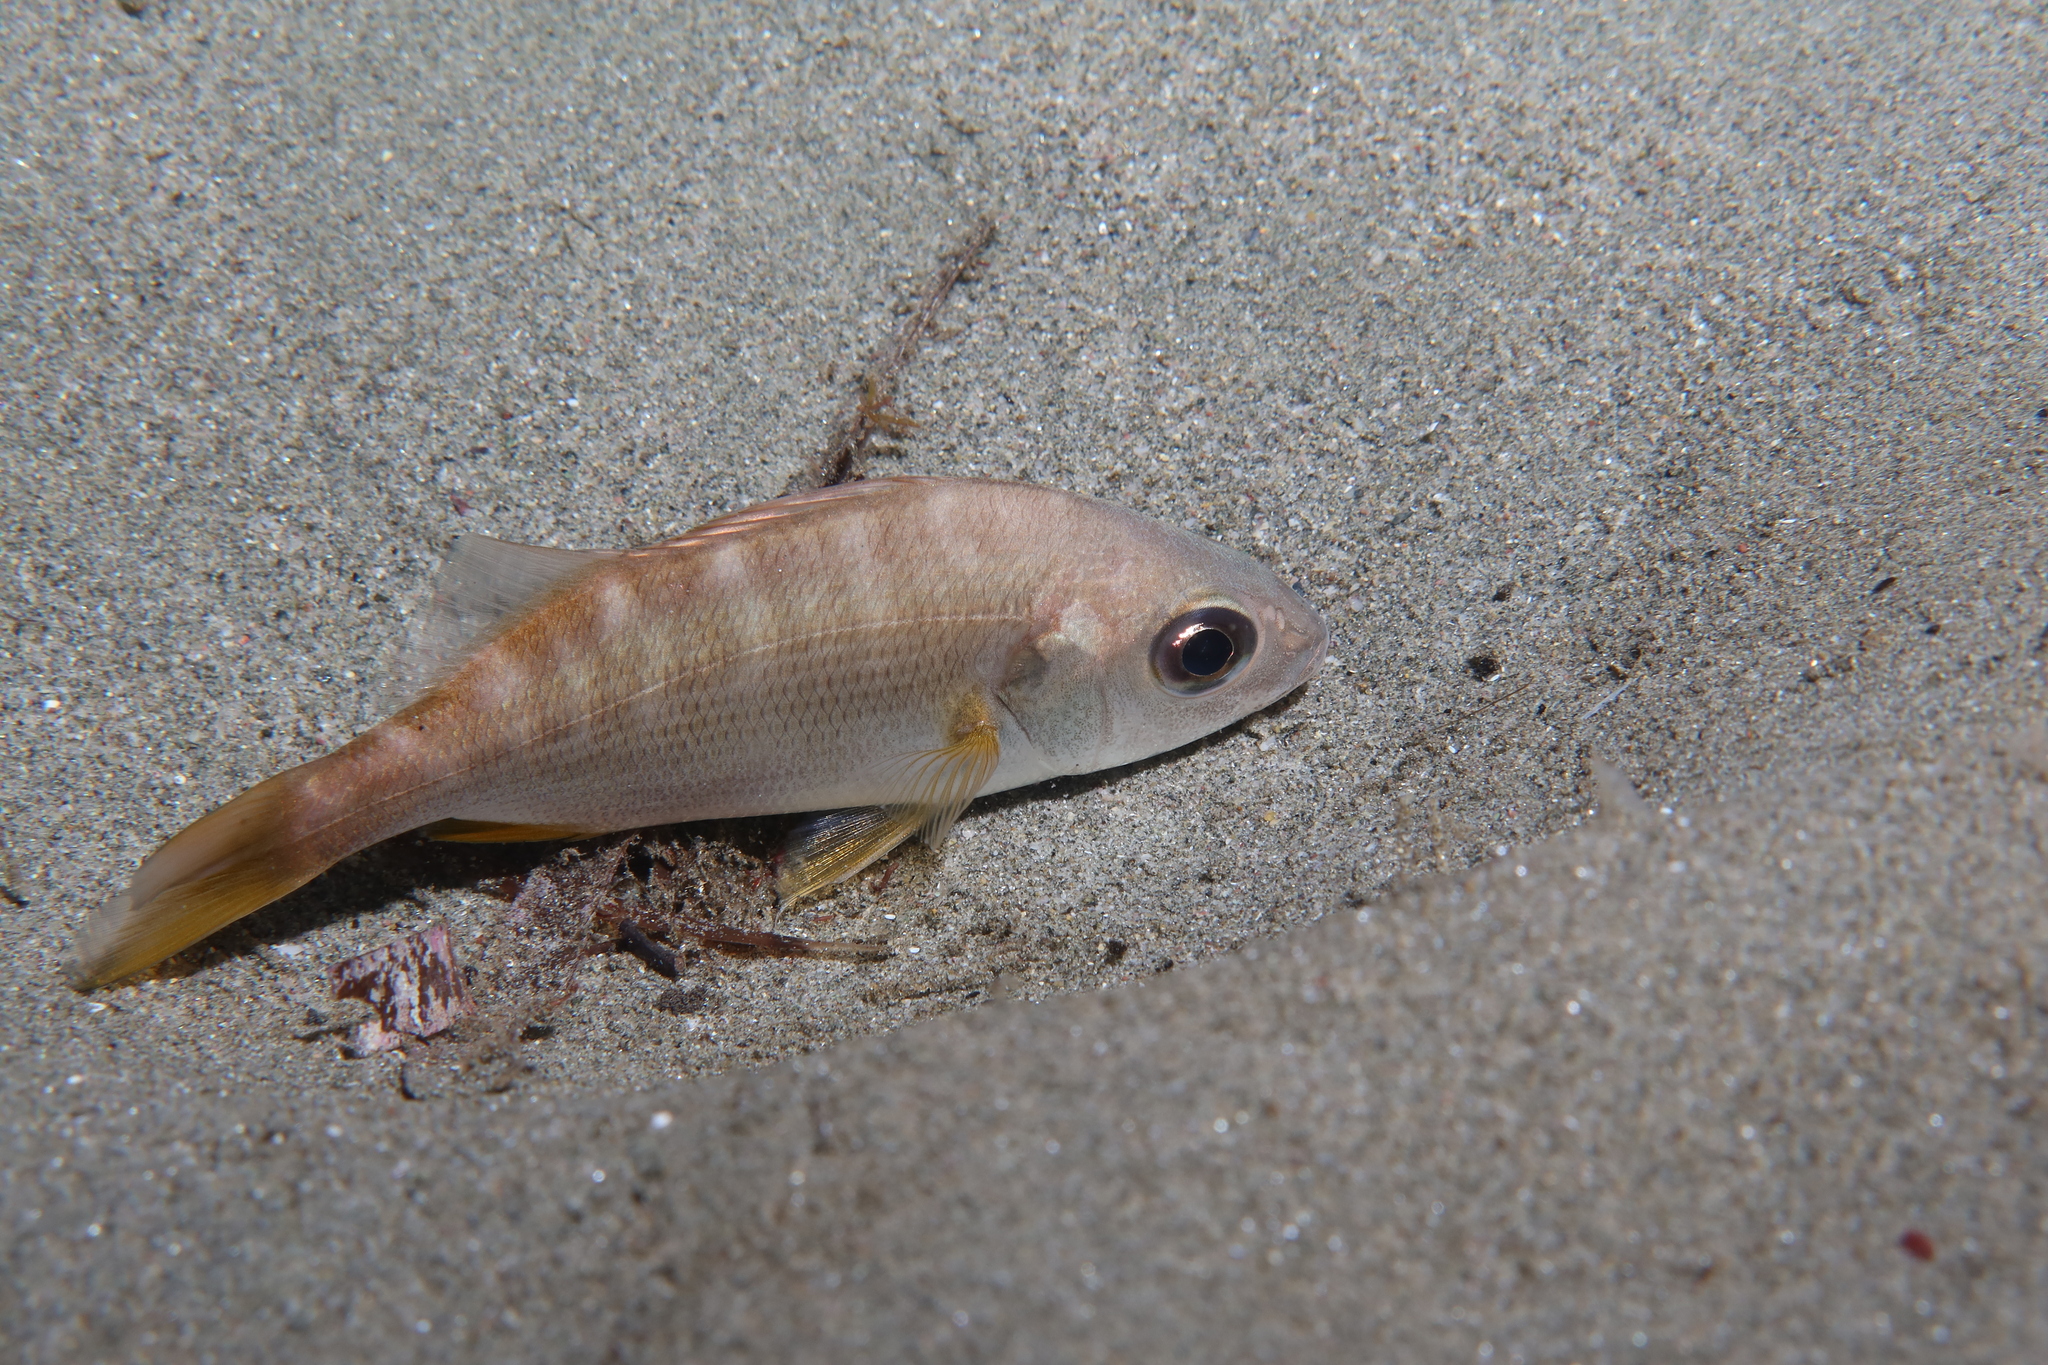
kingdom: Animalia
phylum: Chordata
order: Perciformes
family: Haemulidae
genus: Pomadasys
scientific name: Pomadasys incisus
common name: Bastard grunt
